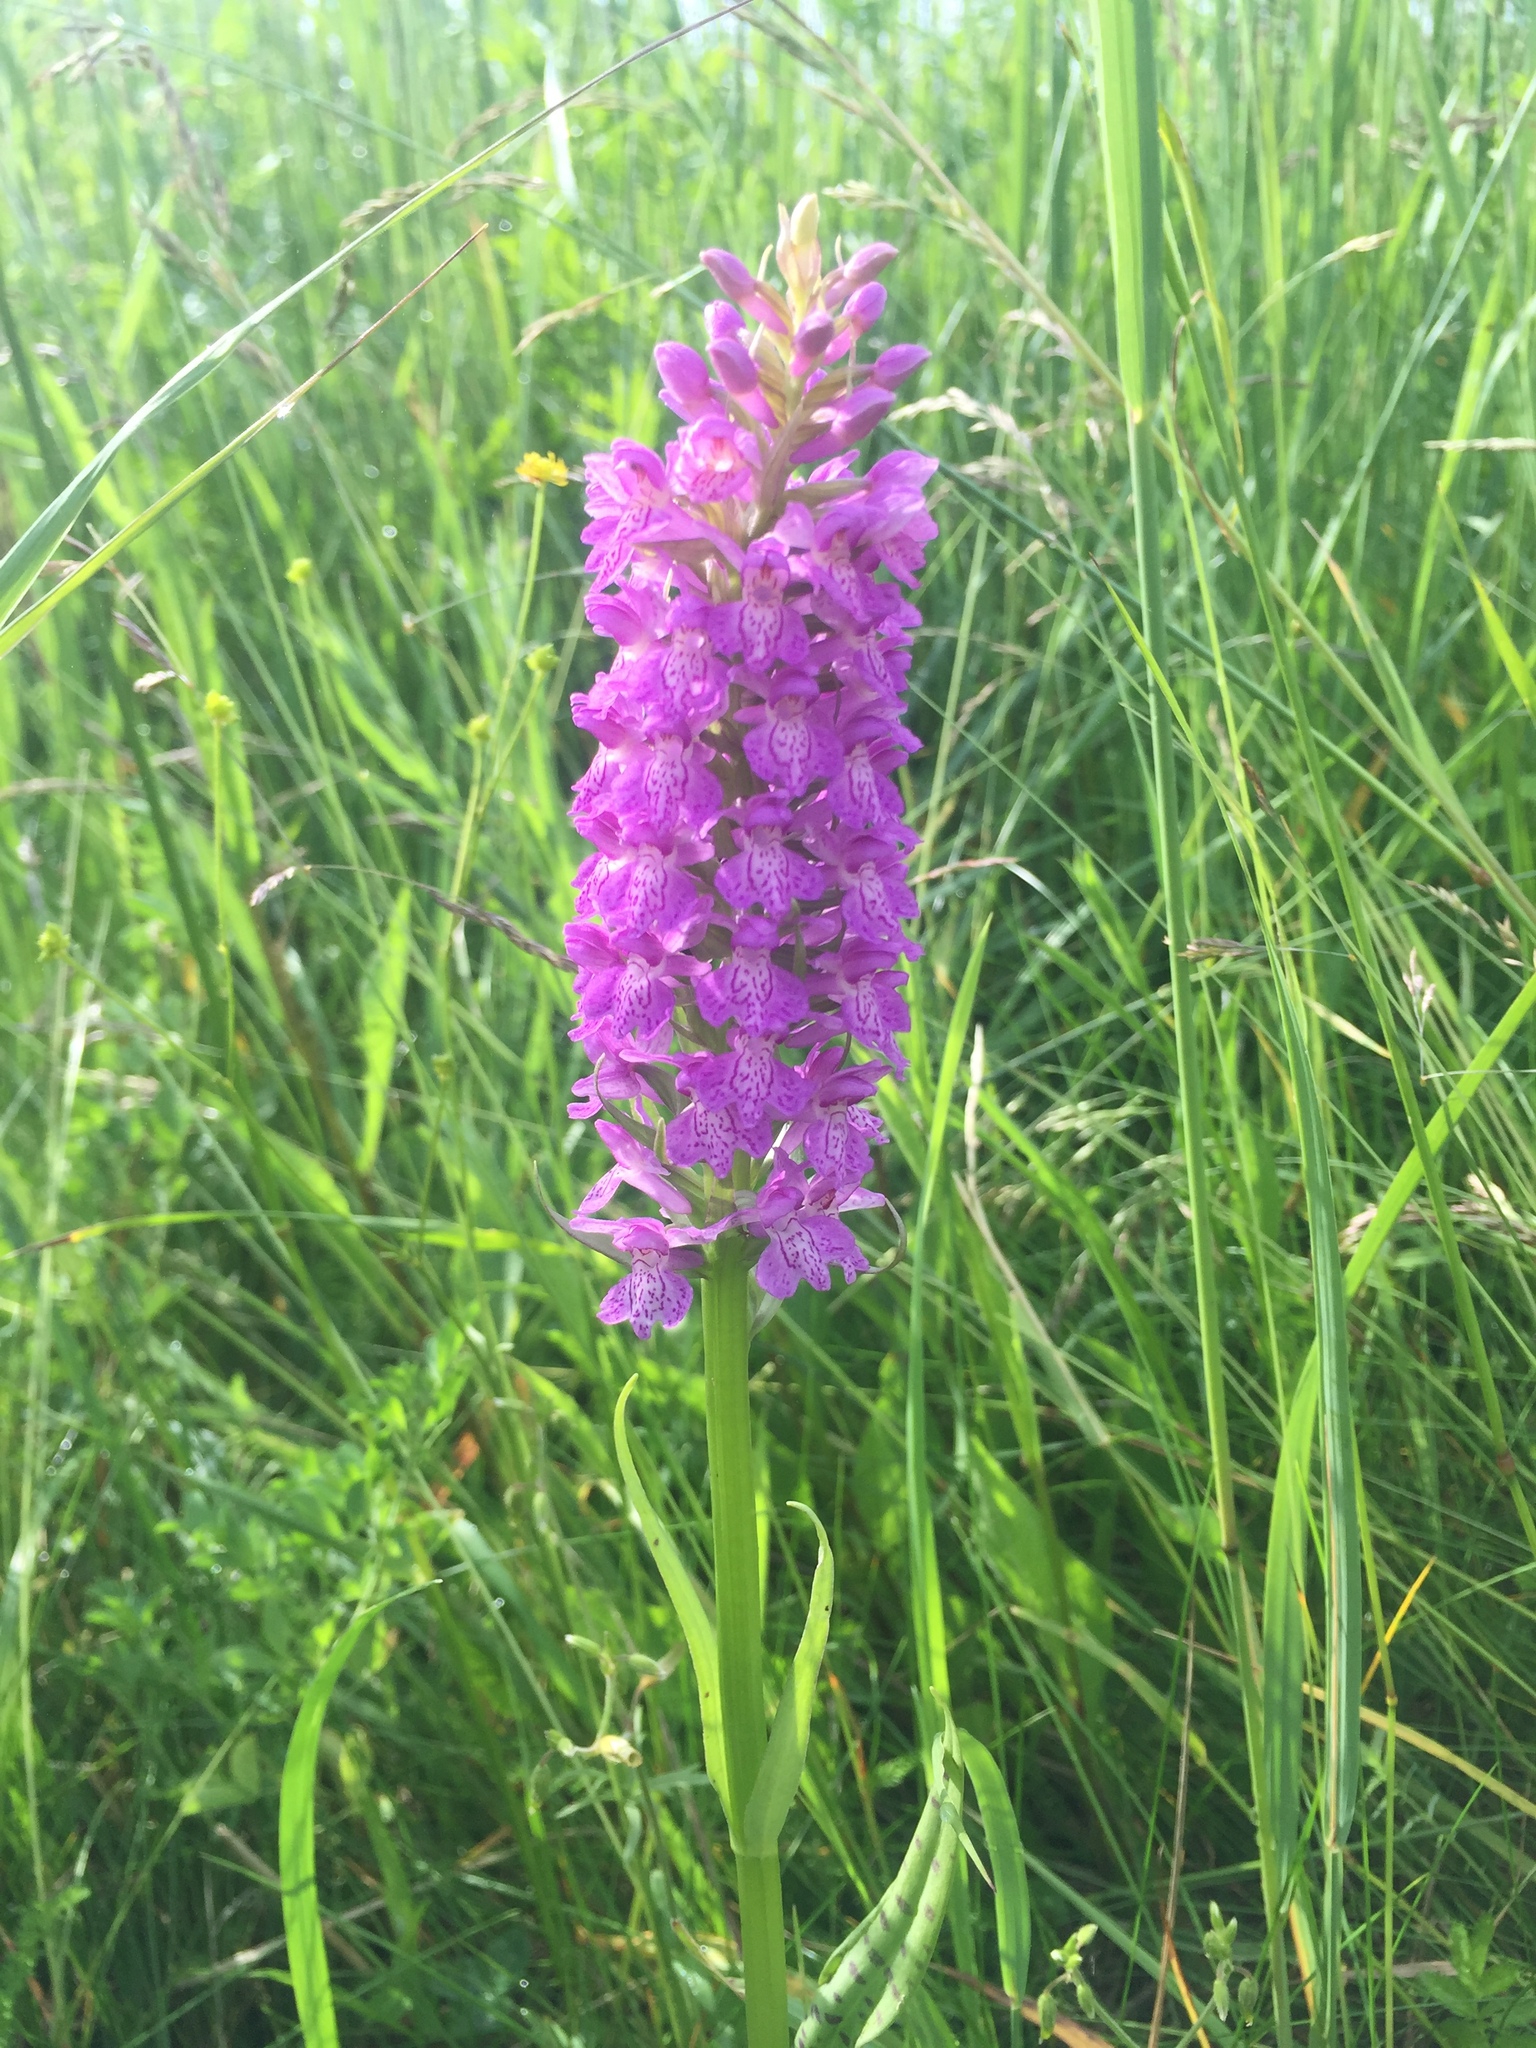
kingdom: Plantae
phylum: Tracheophyta
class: Liliopsida
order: Asparagales
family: Orchidaceae
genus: Dactylorhiza
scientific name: Dactylorhiza majalis
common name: Marsh orchid
